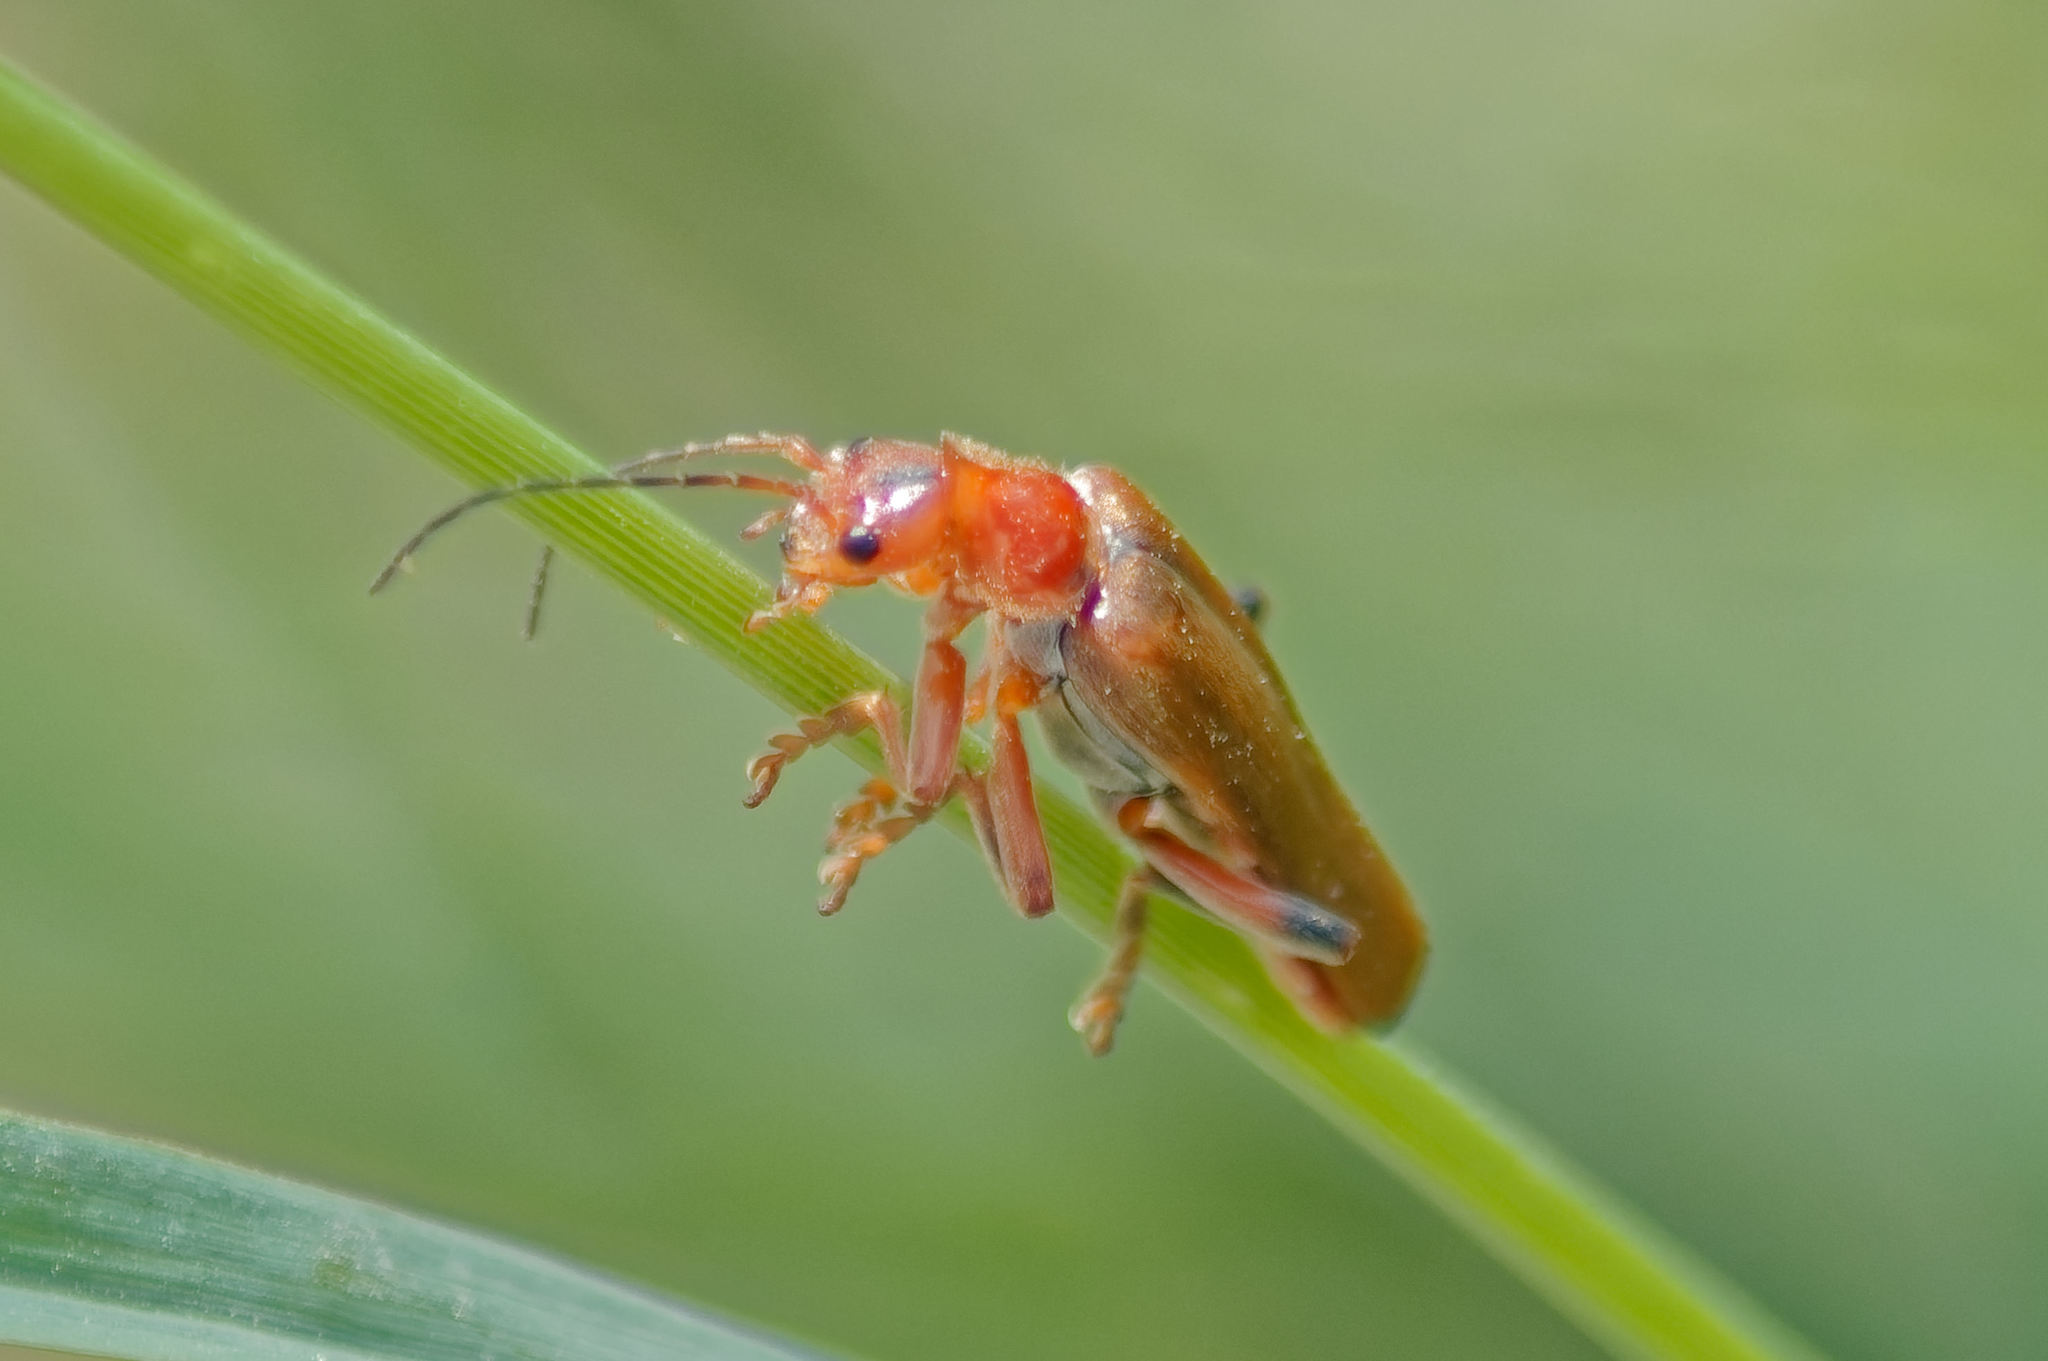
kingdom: Animalia
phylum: Arthropoda
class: Insecta
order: Coleoptera
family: Cantharidae
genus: Cantharis
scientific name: Cantharis livida
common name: Livid soldier beetle
